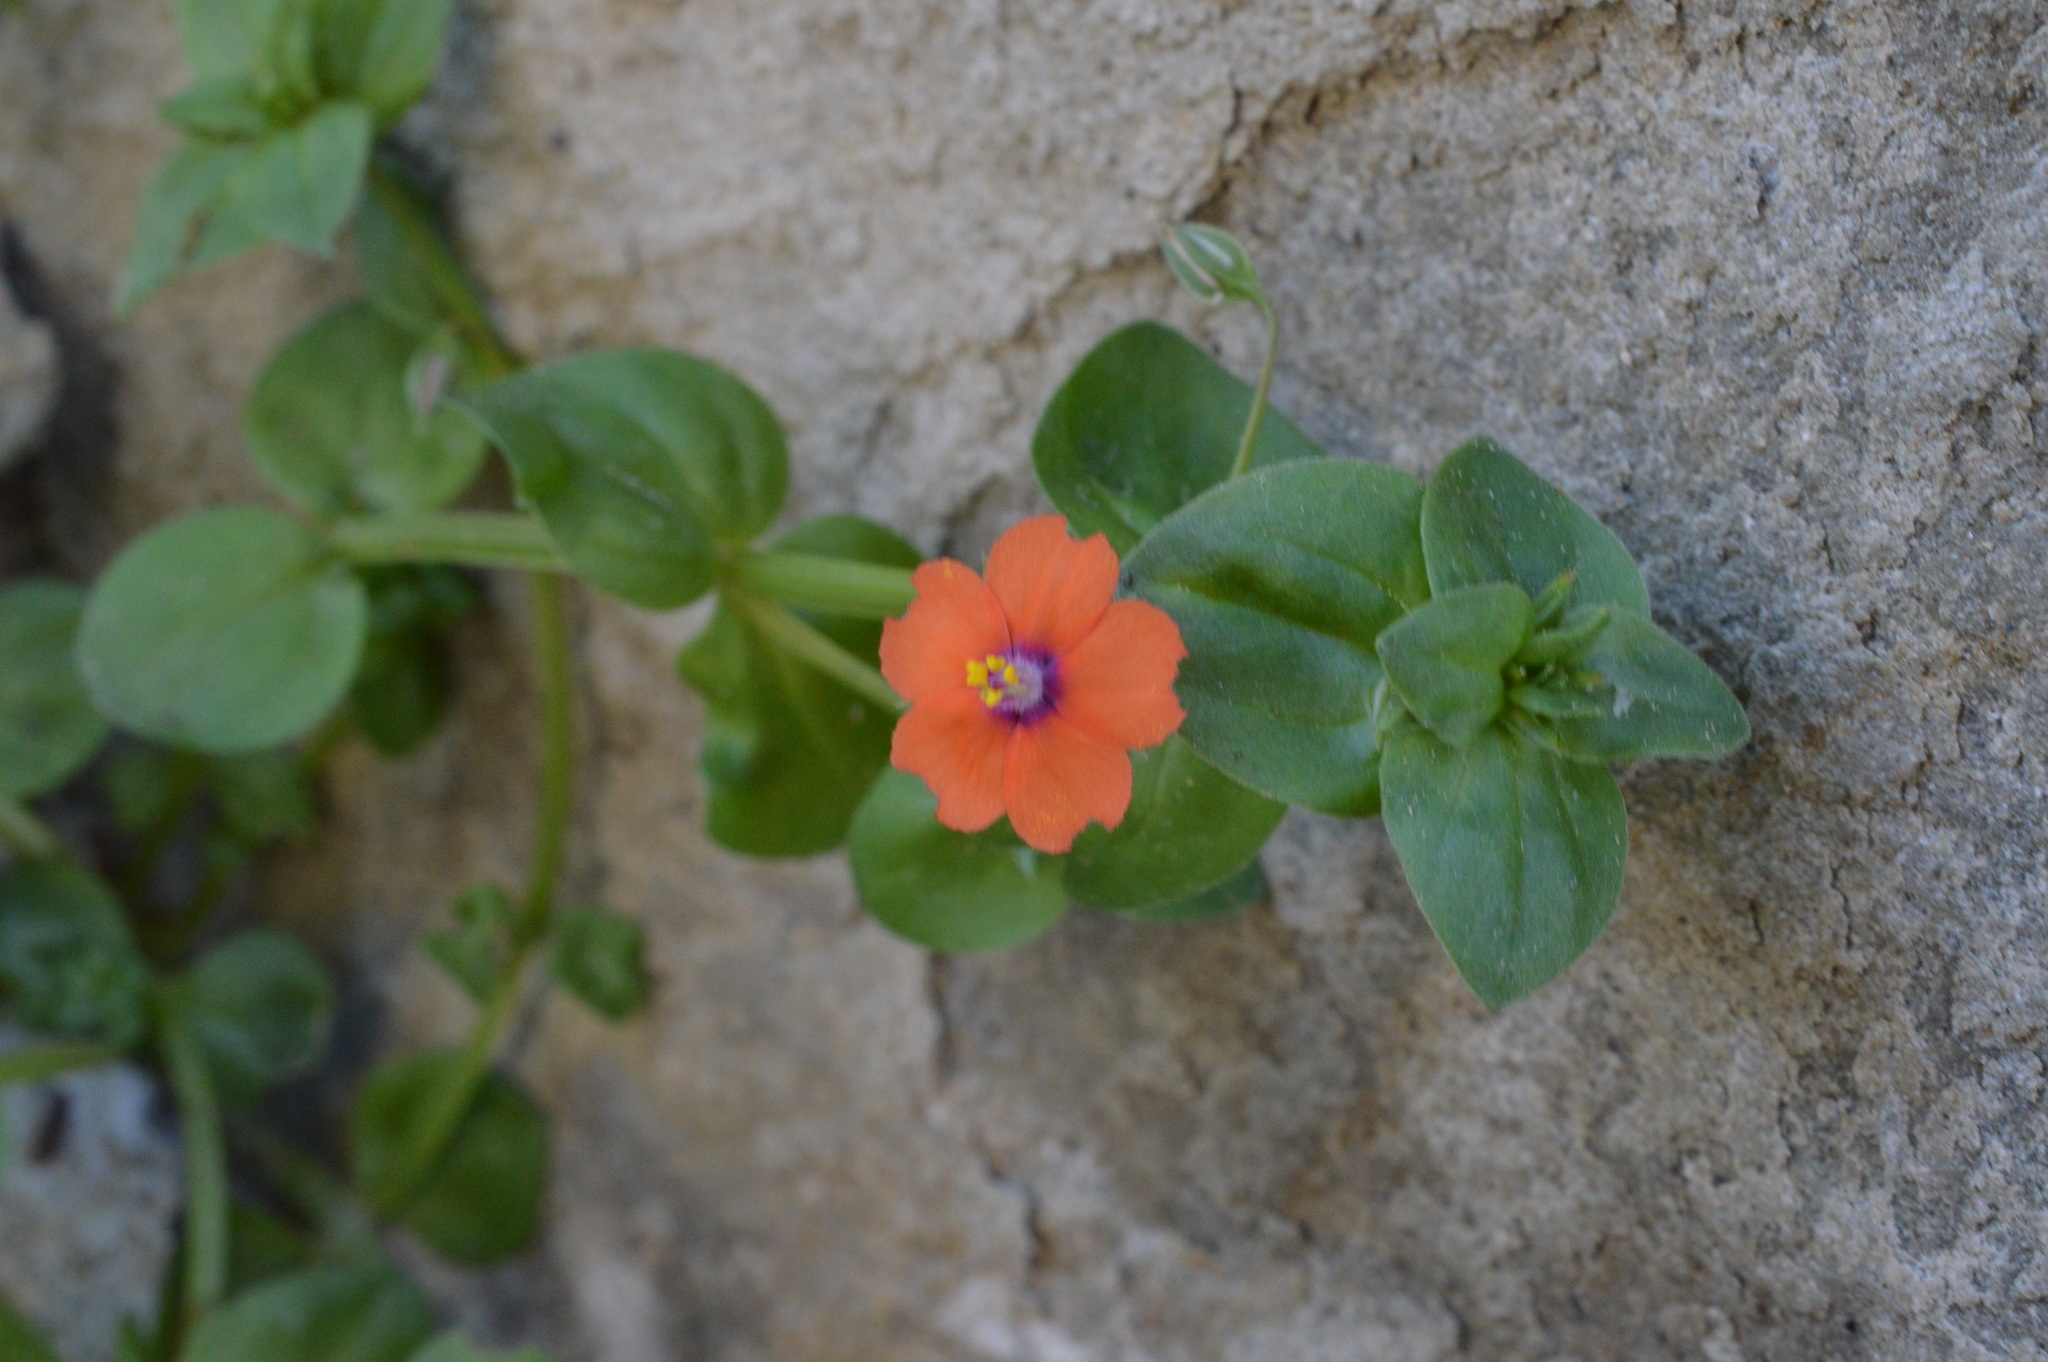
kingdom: Plantae
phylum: Tracheophyta
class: Magnoliopsida
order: Ericales
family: Primulaceae
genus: Lysimachia
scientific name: Lysimachia arvensis
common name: Scarlet pimpernel
